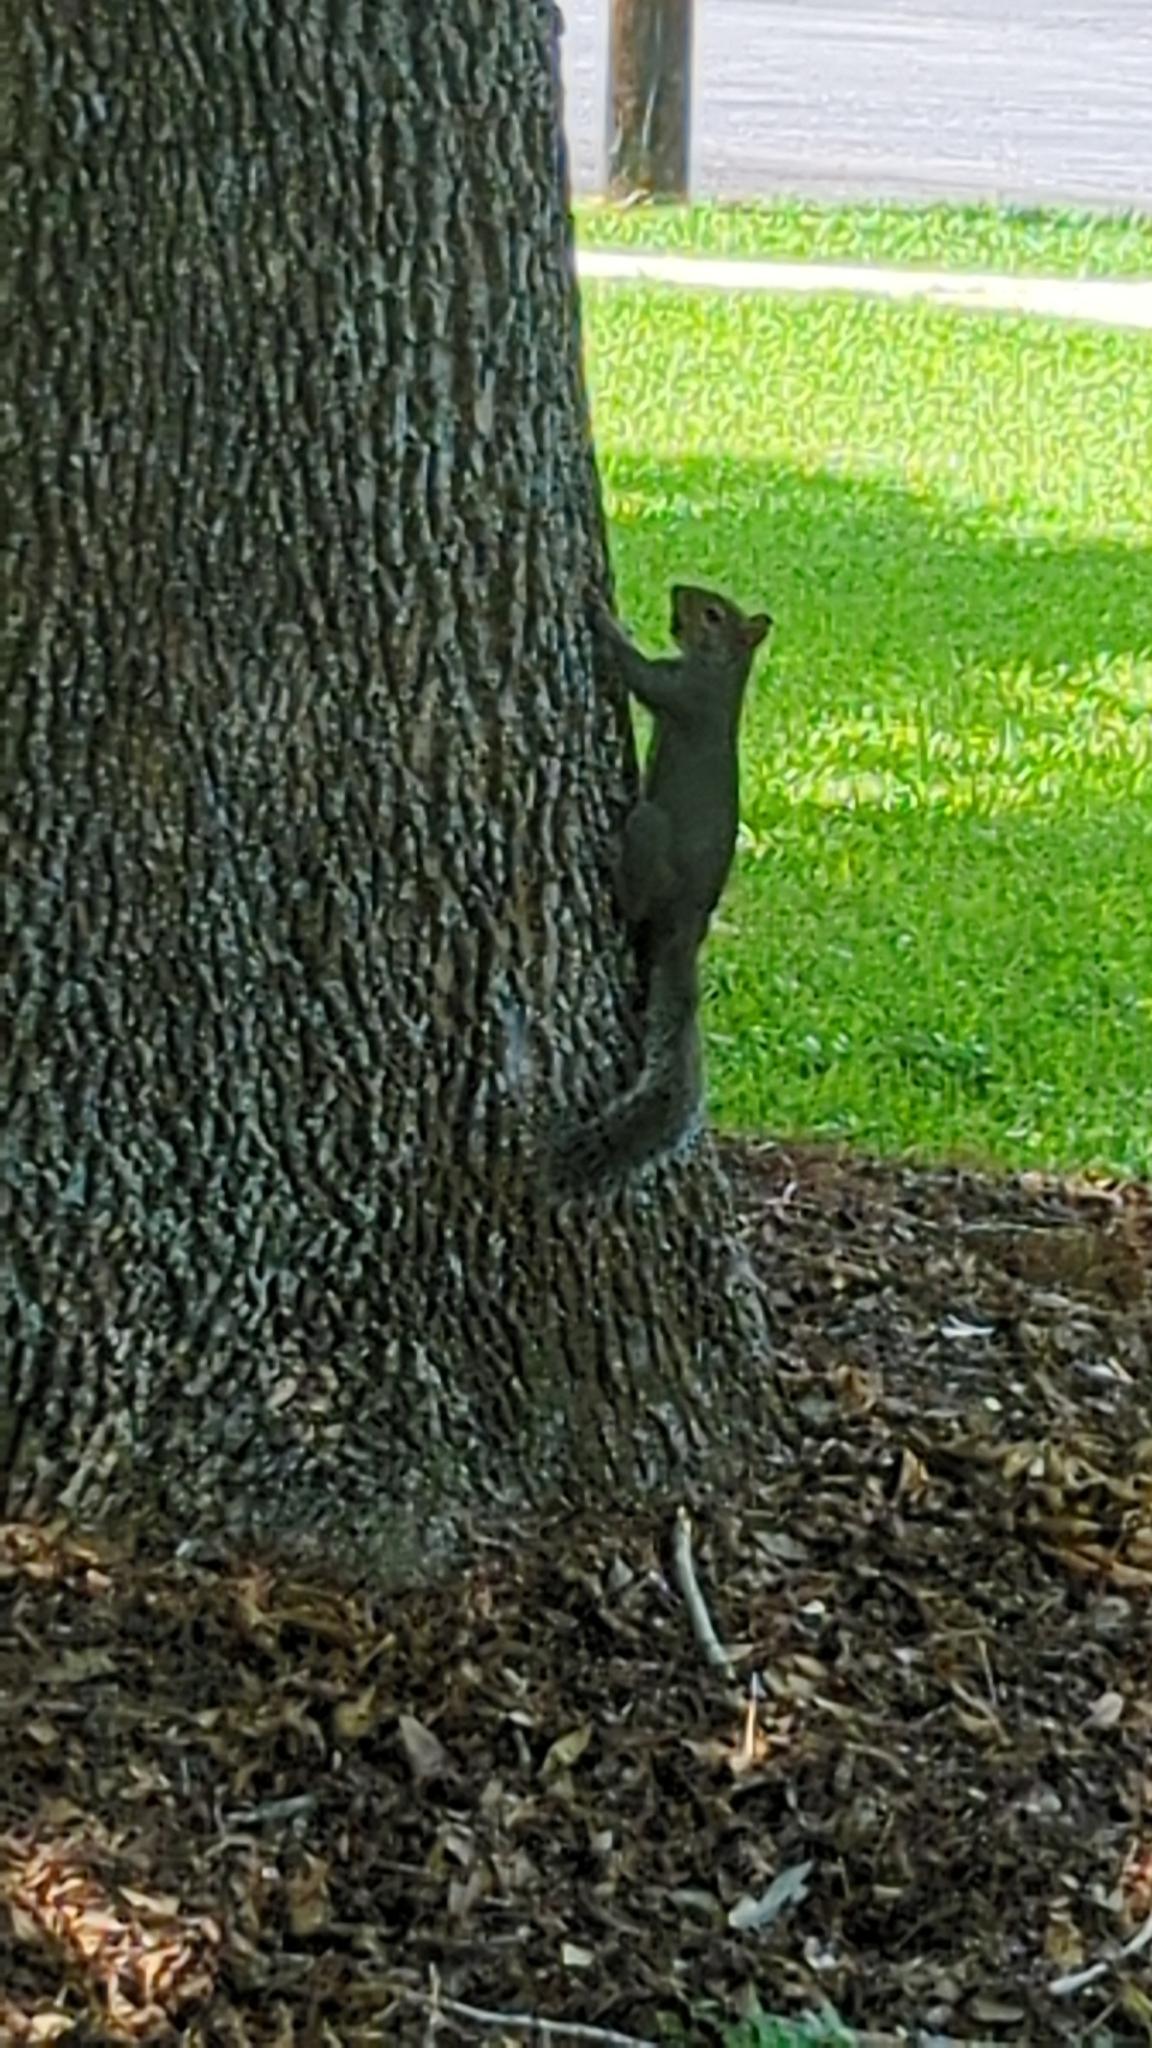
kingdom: Animalia
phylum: Chordata
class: Mammalia
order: Rodentia
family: Sciuridae
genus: Sciurus
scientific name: Sciurus carolinensis
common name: Eastern gray squirrel
